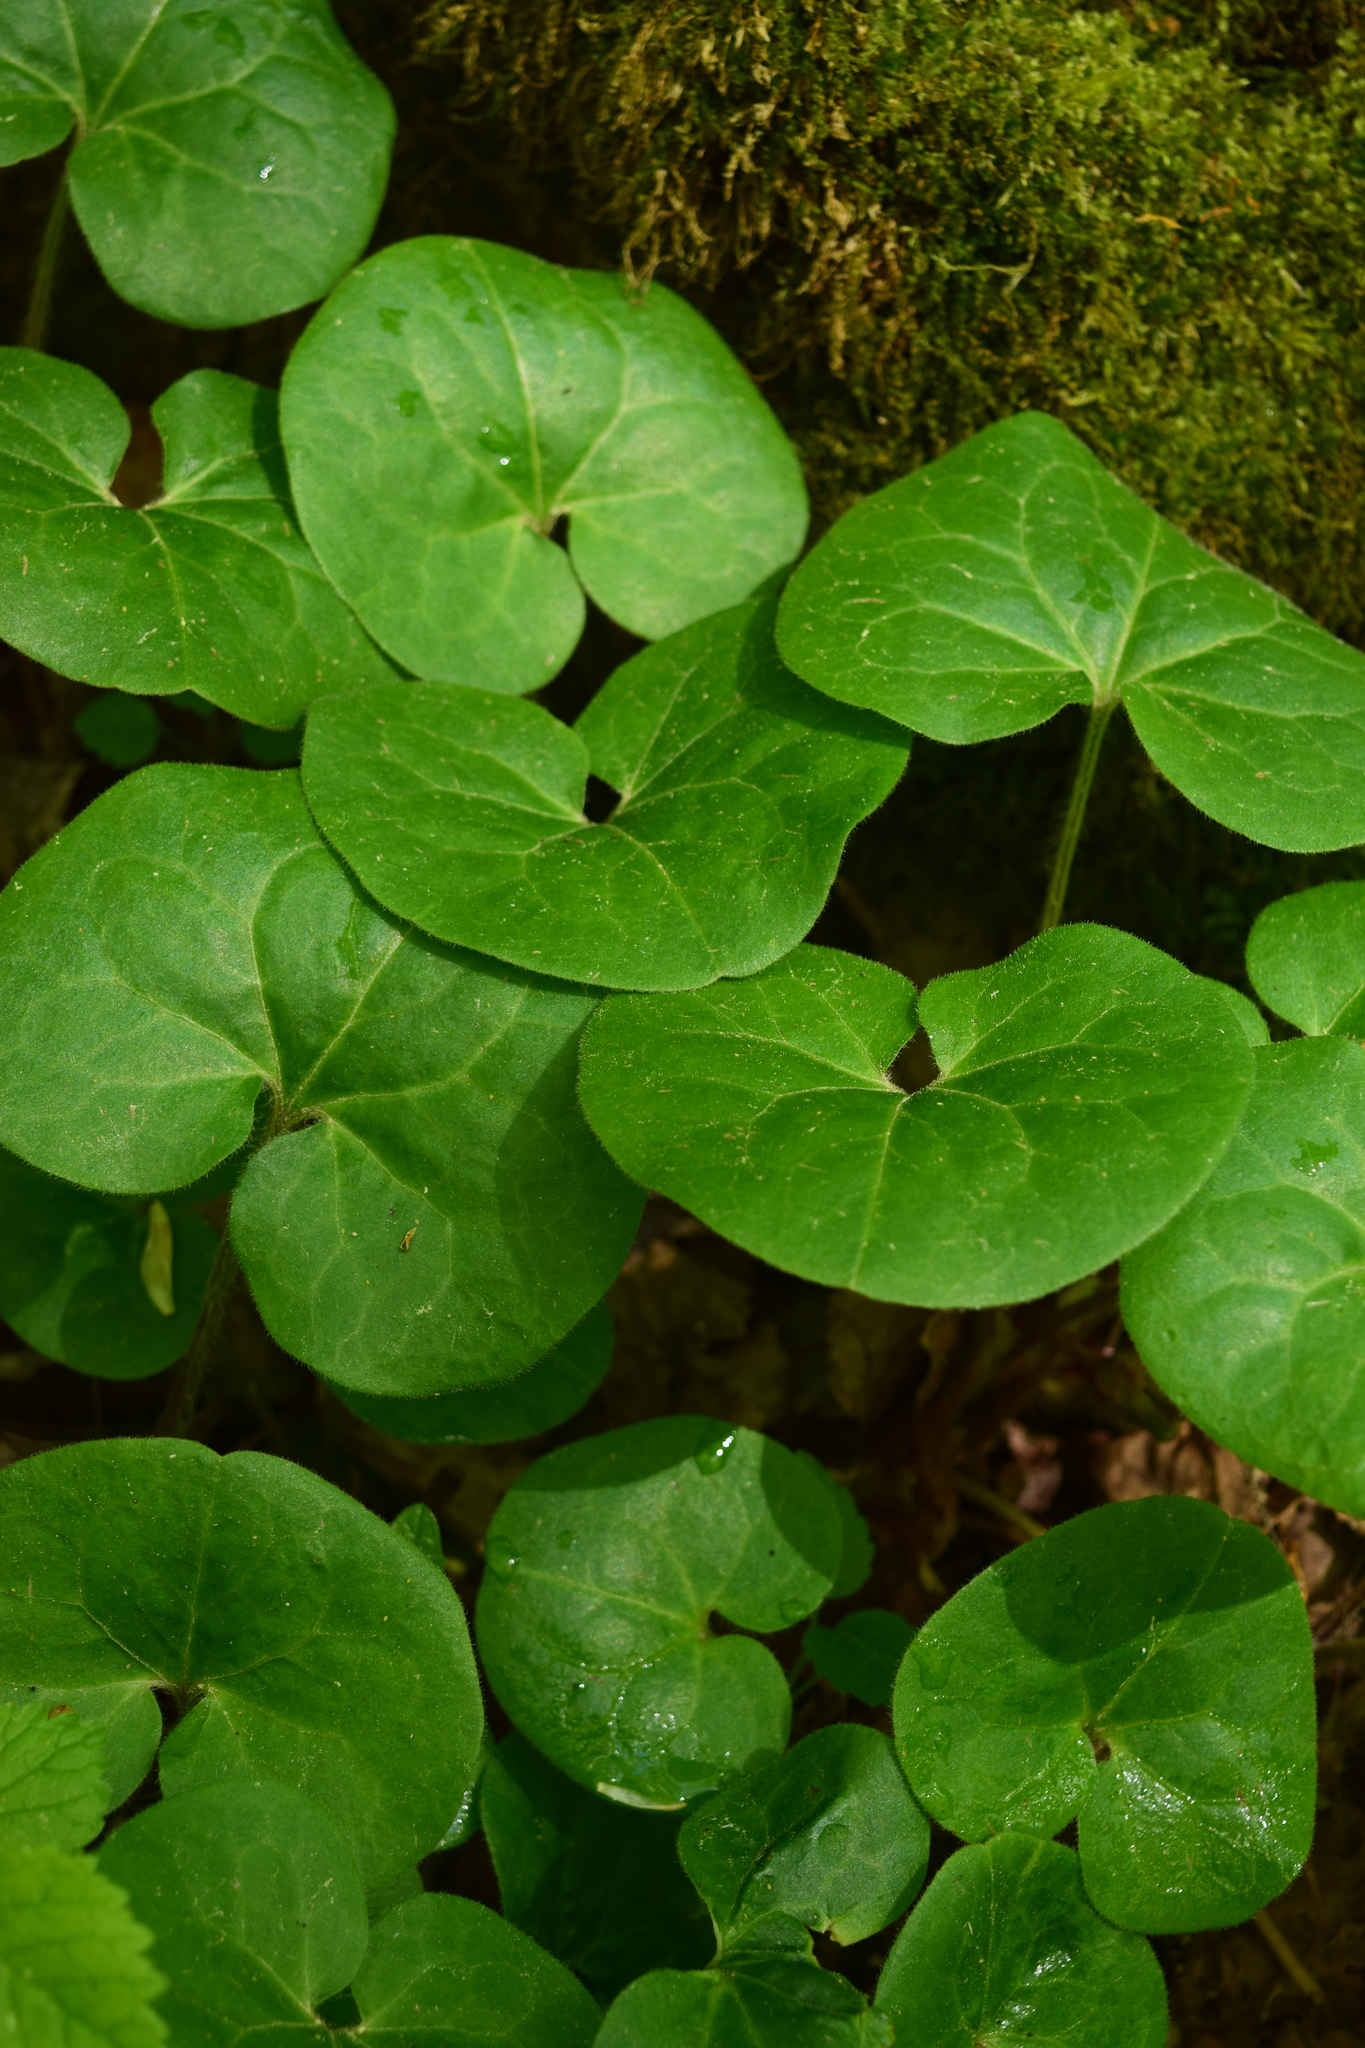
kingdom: Plantae
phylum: Tracheophyta
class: Magnoliopsida
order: Piperales
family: Aristolochiaceae
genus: Asarum
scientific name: Asarum europaeum
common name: Asarabacca
